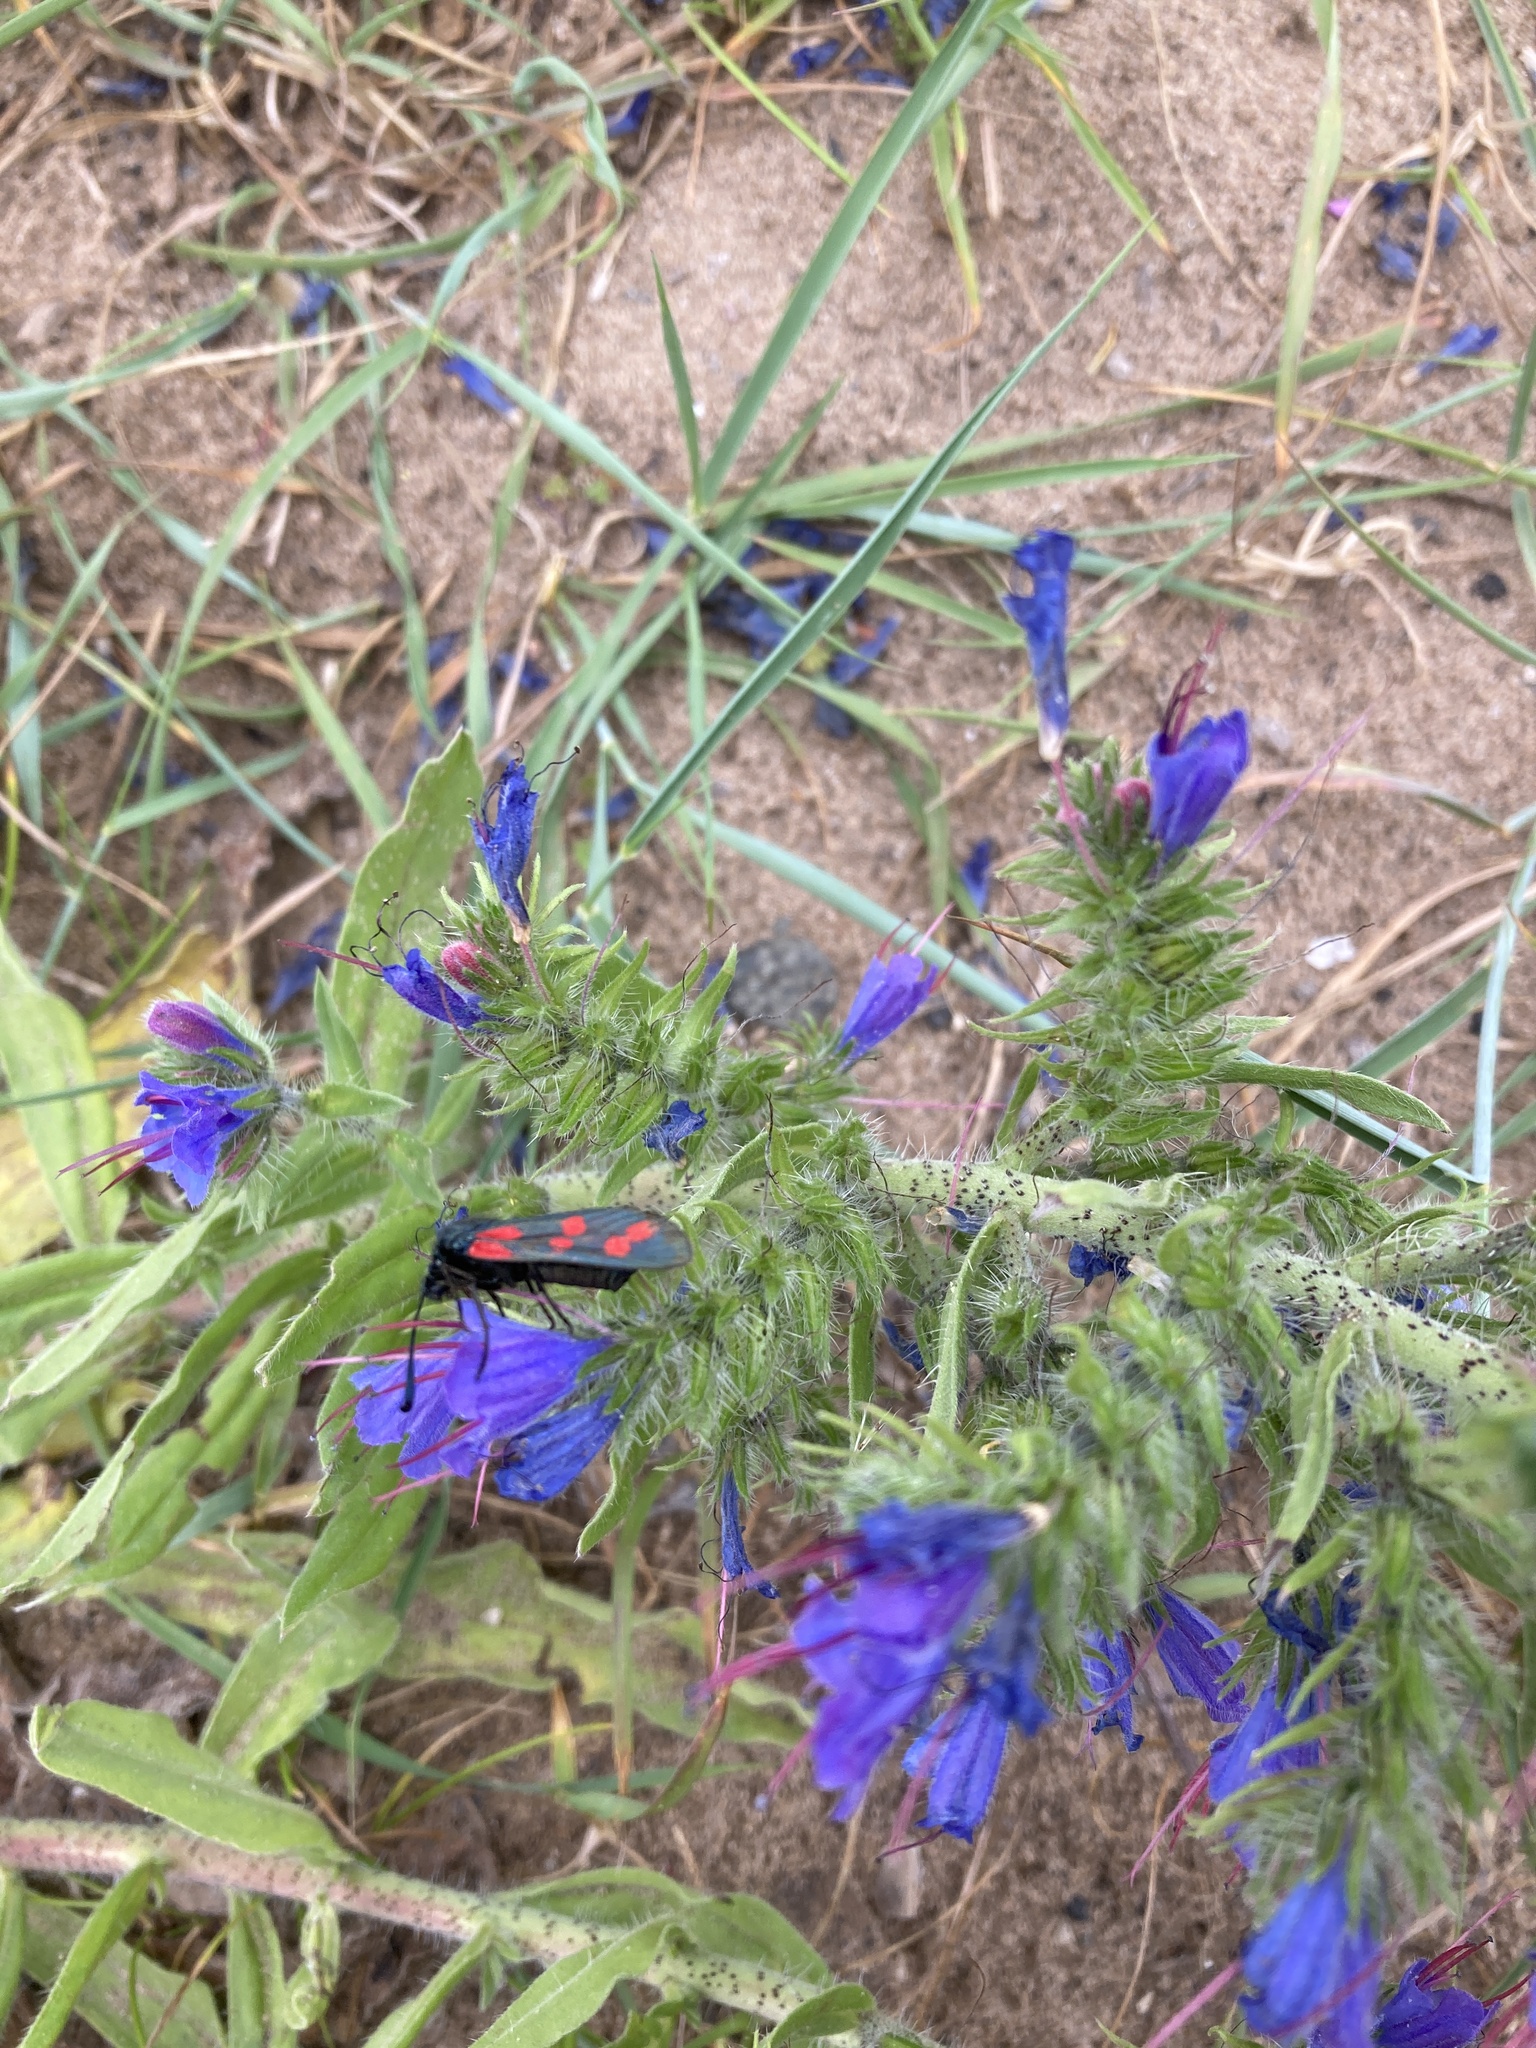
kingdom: Animalia
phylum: Arthropoda
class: Insecta
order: Lepidoptera
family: Zygaenidae
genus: Zygaena
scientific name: Zygaena filipendulae
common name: Six-spot burnet
